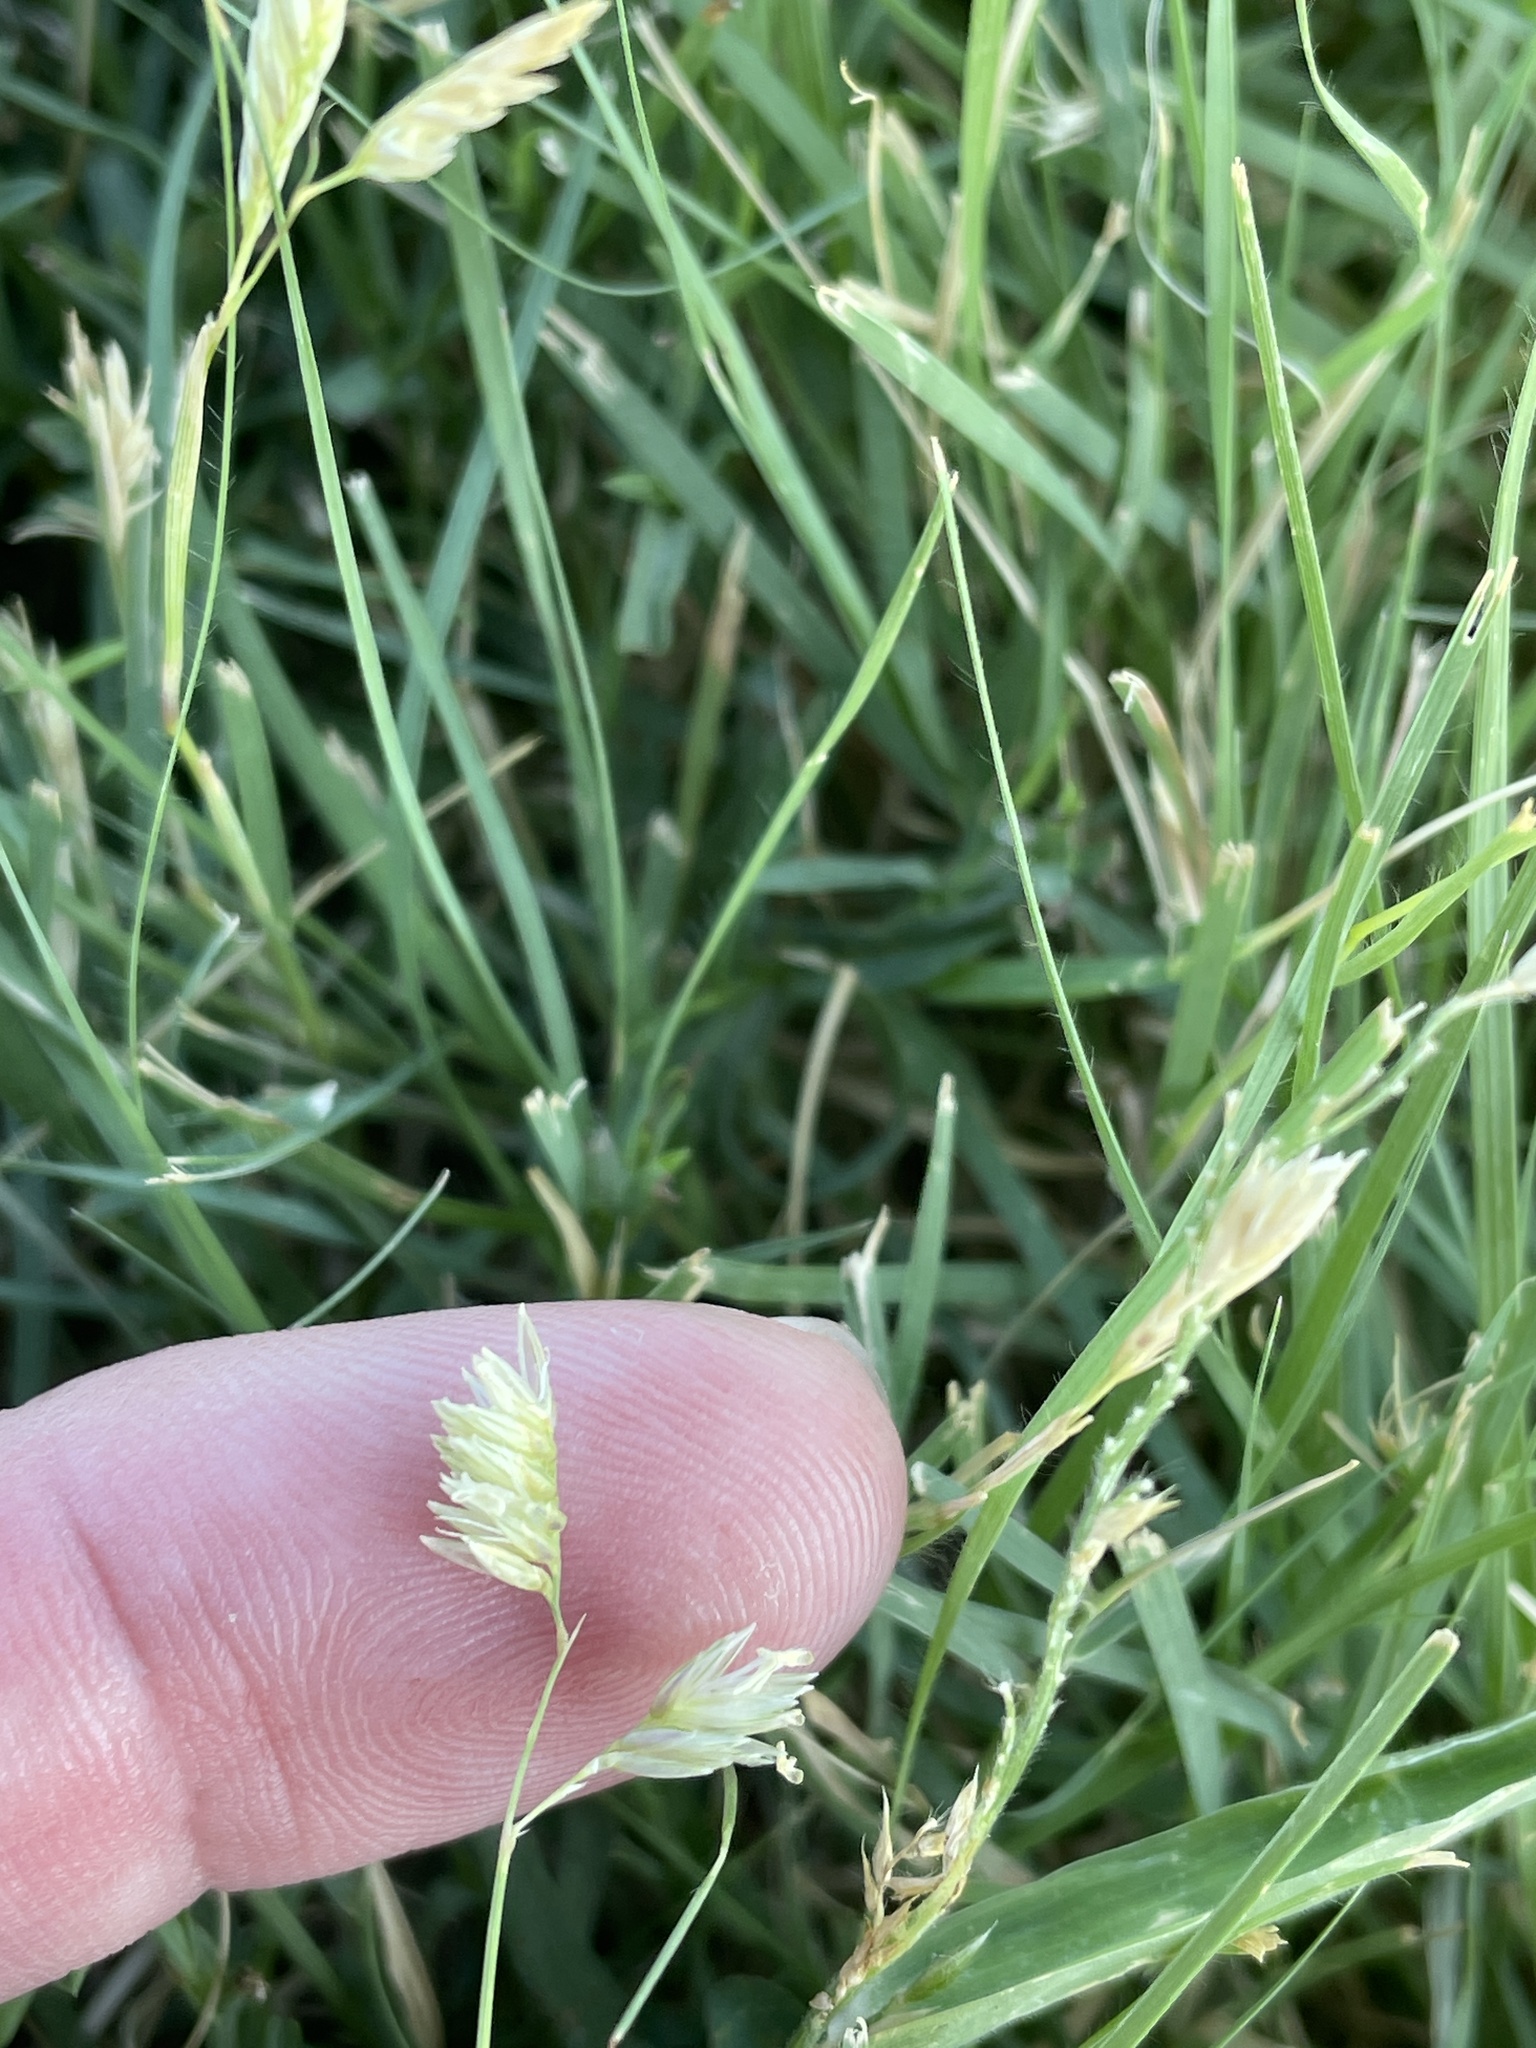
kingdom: Plantae
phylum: Tracheophyta
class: Liliopsida
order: Poales
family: Poaceae
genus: Bouteloua
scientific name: Bouteloua dactyloides
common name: Buffalo grass
